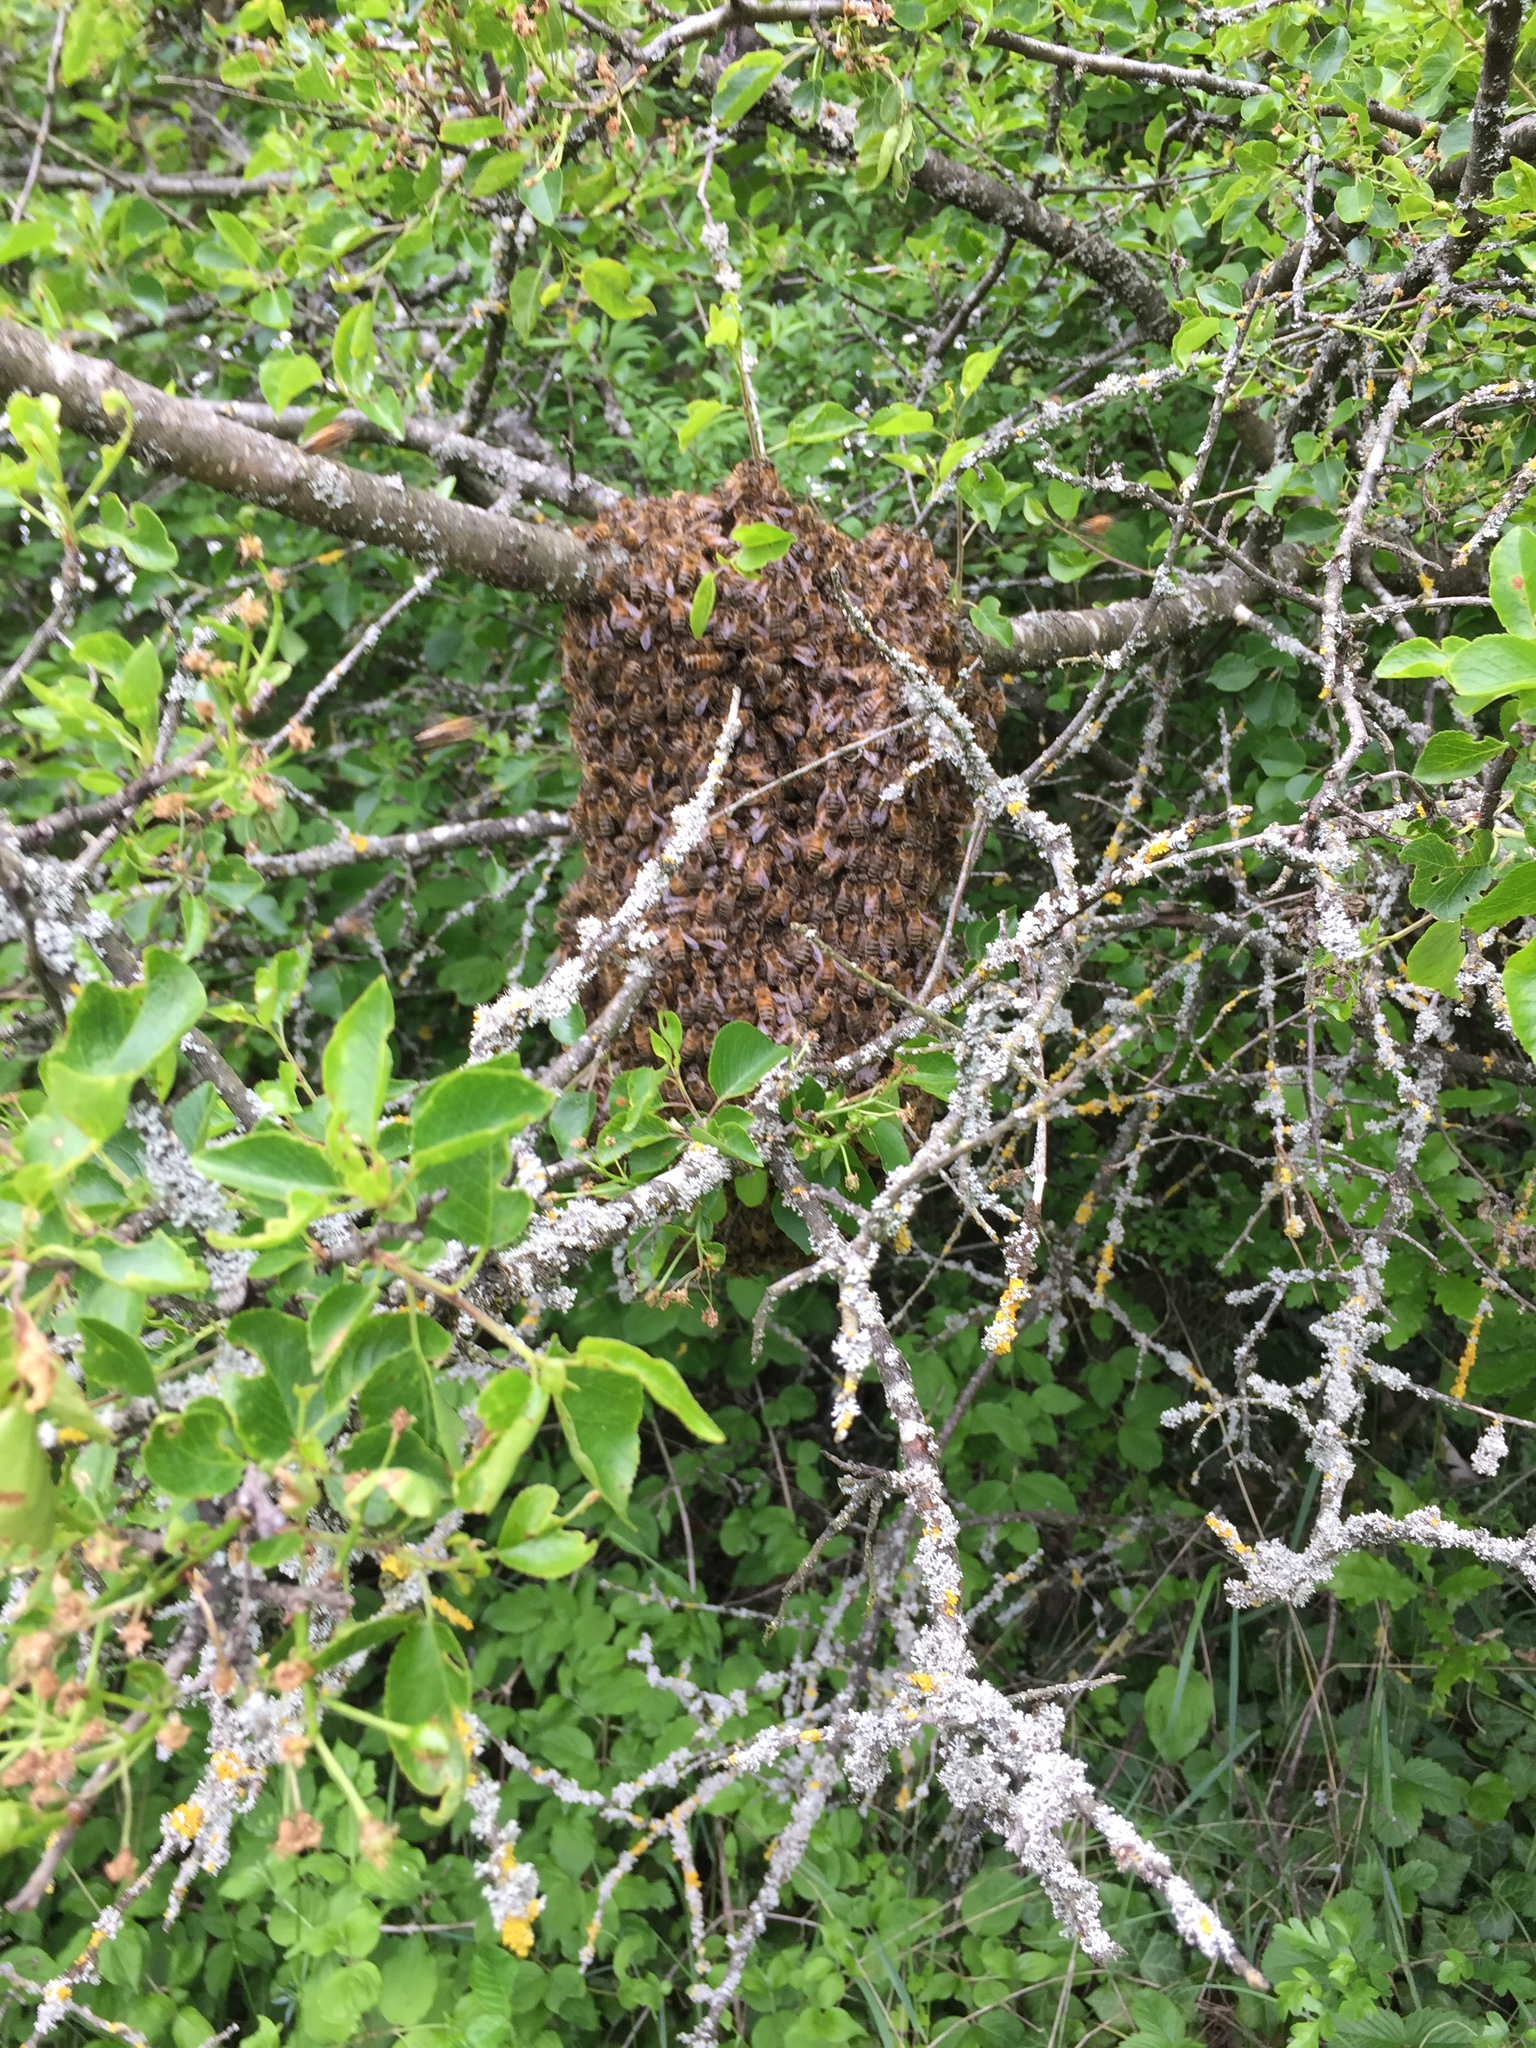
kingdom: Animalia
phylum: Arthropoda
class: Insecta
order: Hymenoptera
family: Apidae
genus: Apis
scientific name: Apis mellifera
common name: Honey bee
